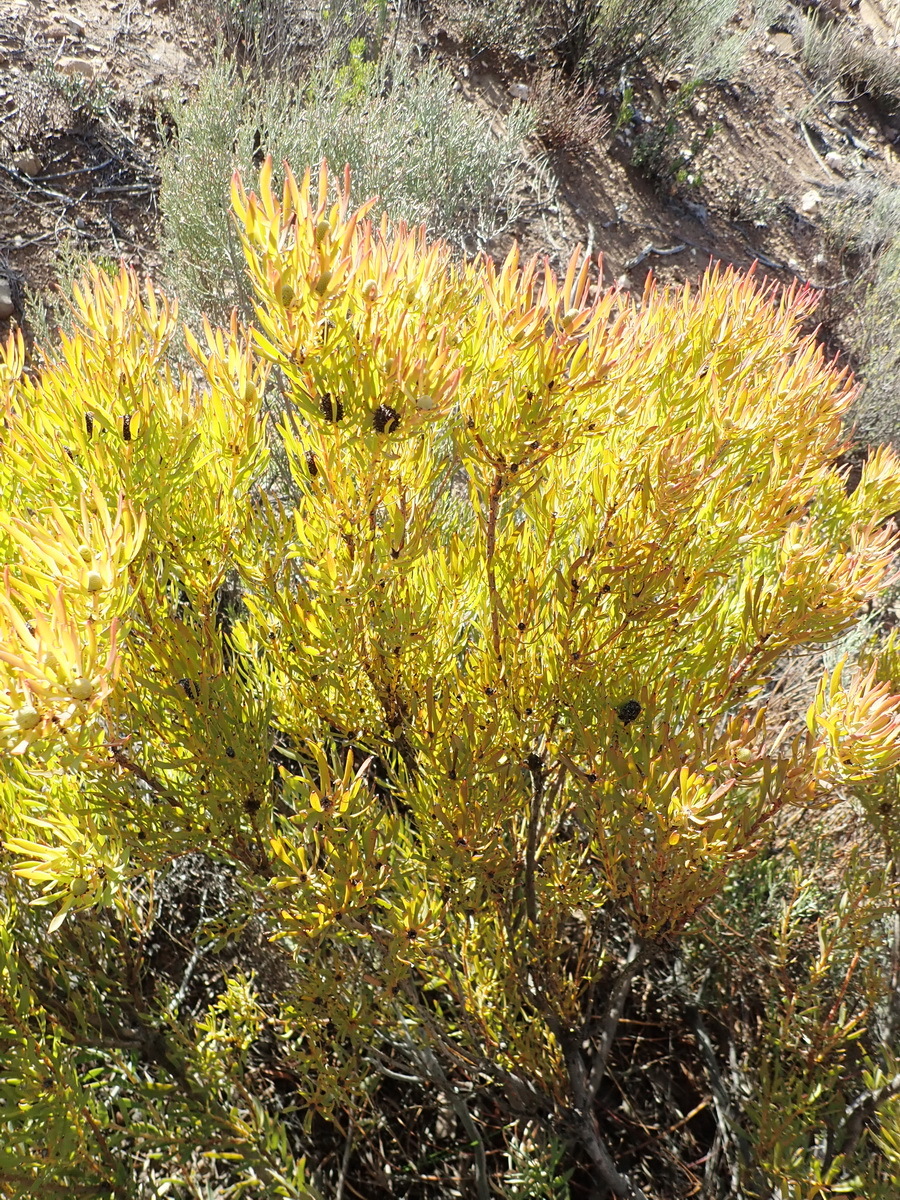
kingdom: Plantae
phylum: Tracheophyta
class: Magnoliopsida
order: Proteales
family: Proteaceae
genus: Leucadendron
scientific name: Leucadendron salignum
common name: Common sunshine conebush
